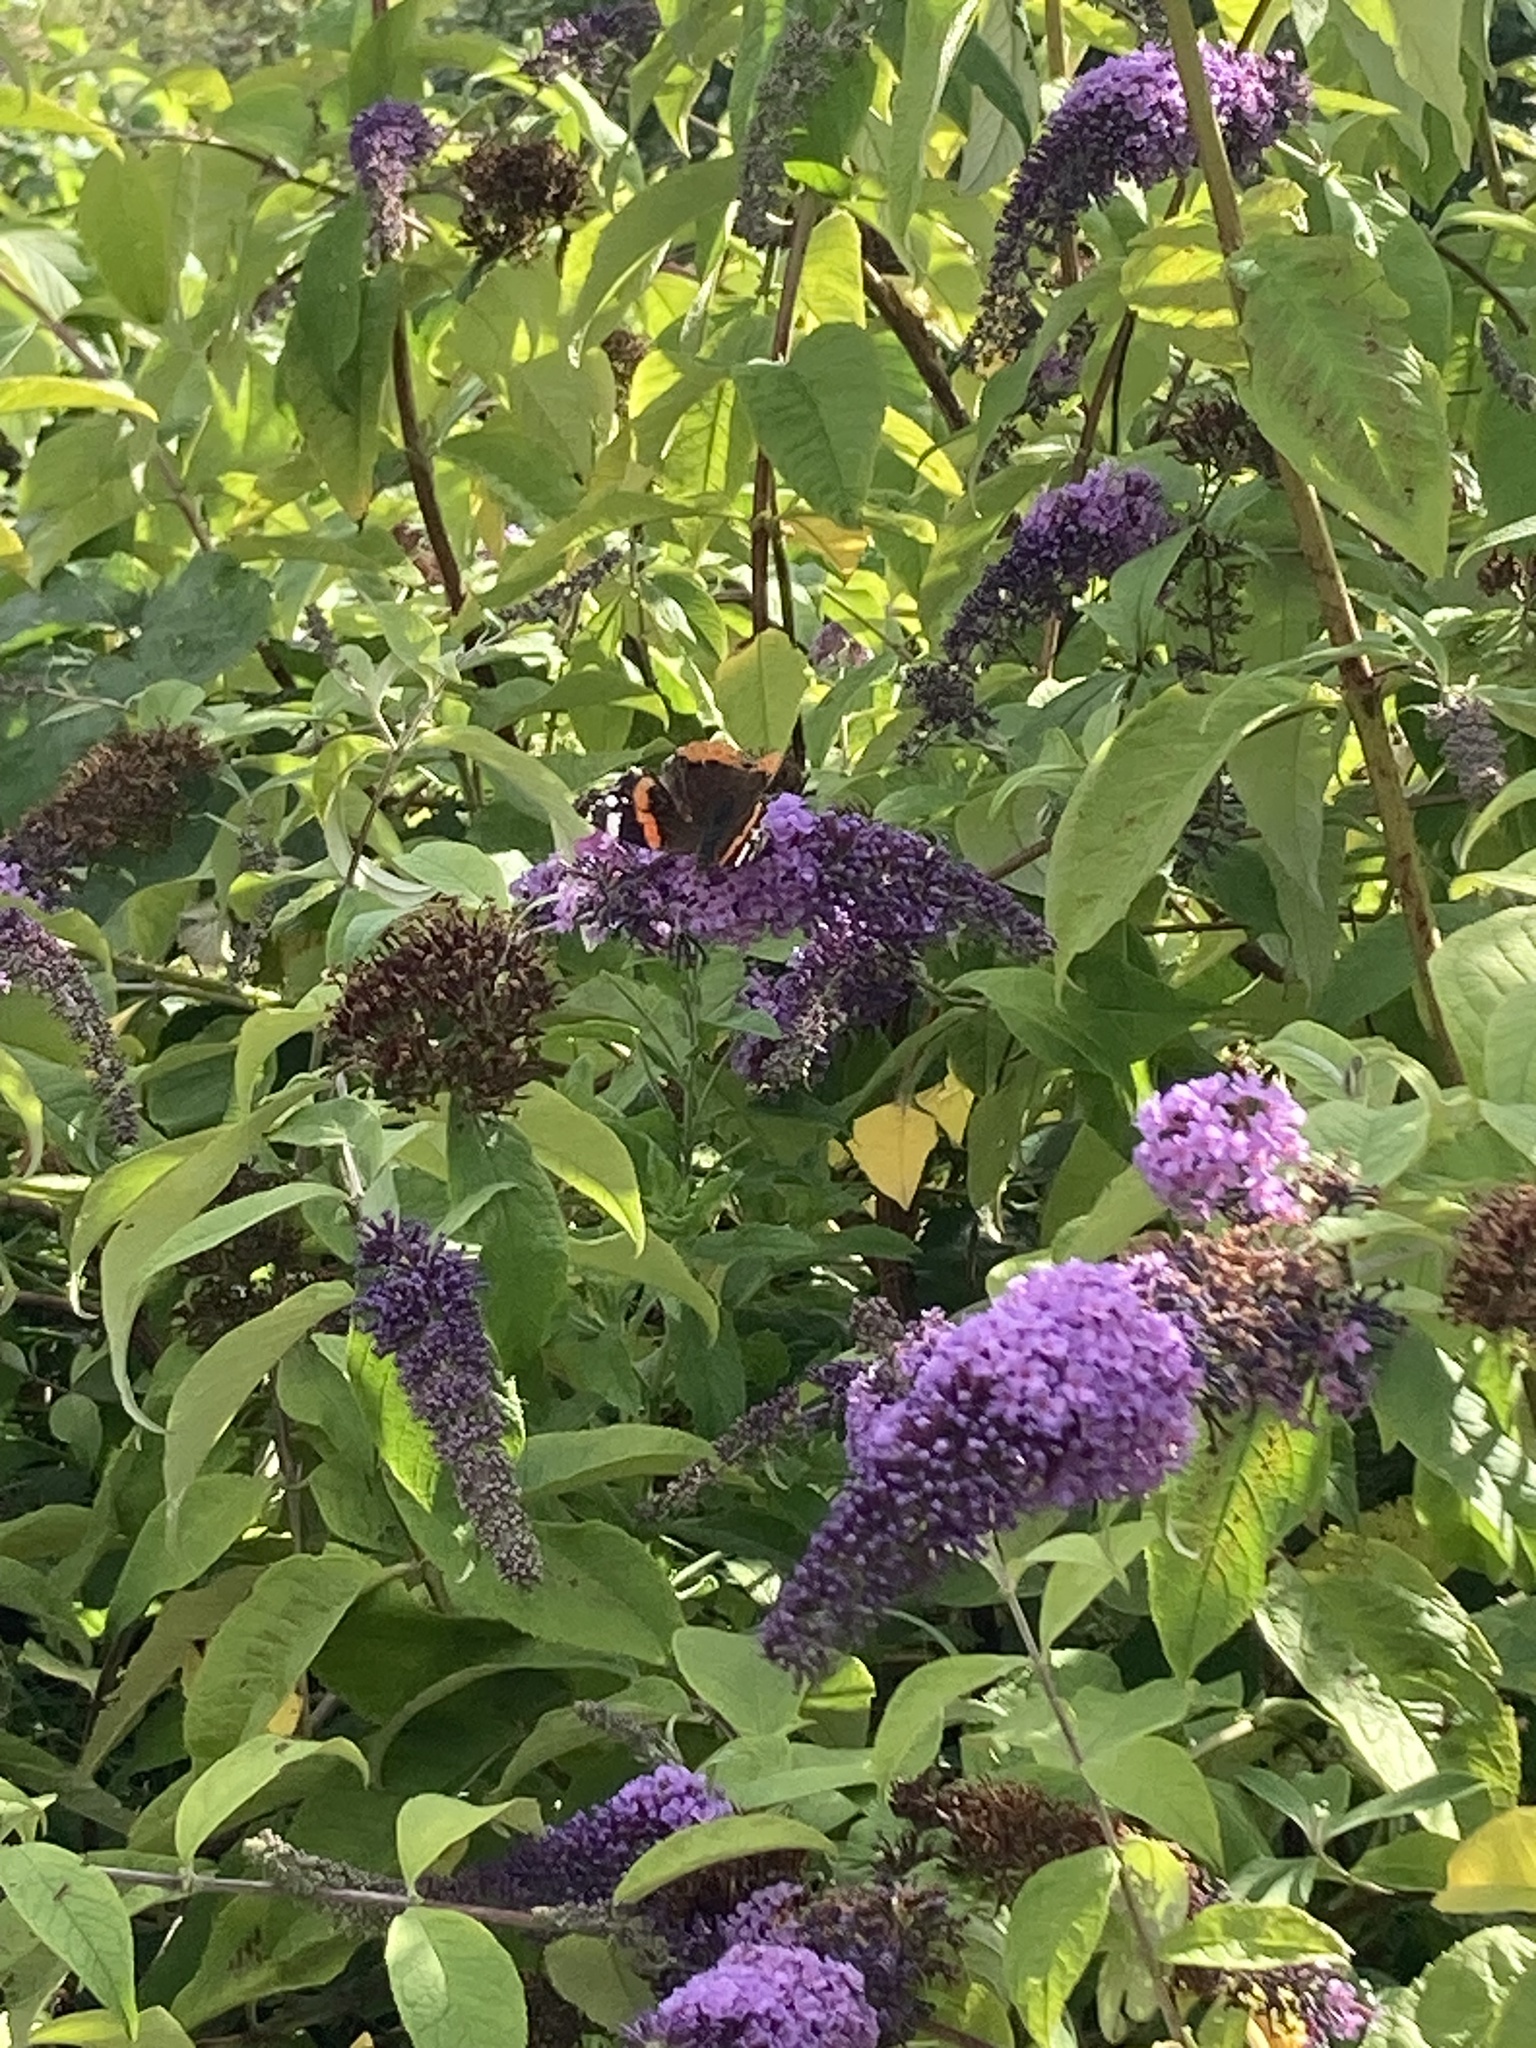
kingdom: Animalia
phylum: Arthropoda
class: Insecta
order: Lepidoptera
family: Nymphalidae
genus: Vanessa
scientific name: Vanessa atalanta
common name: Red admiral
